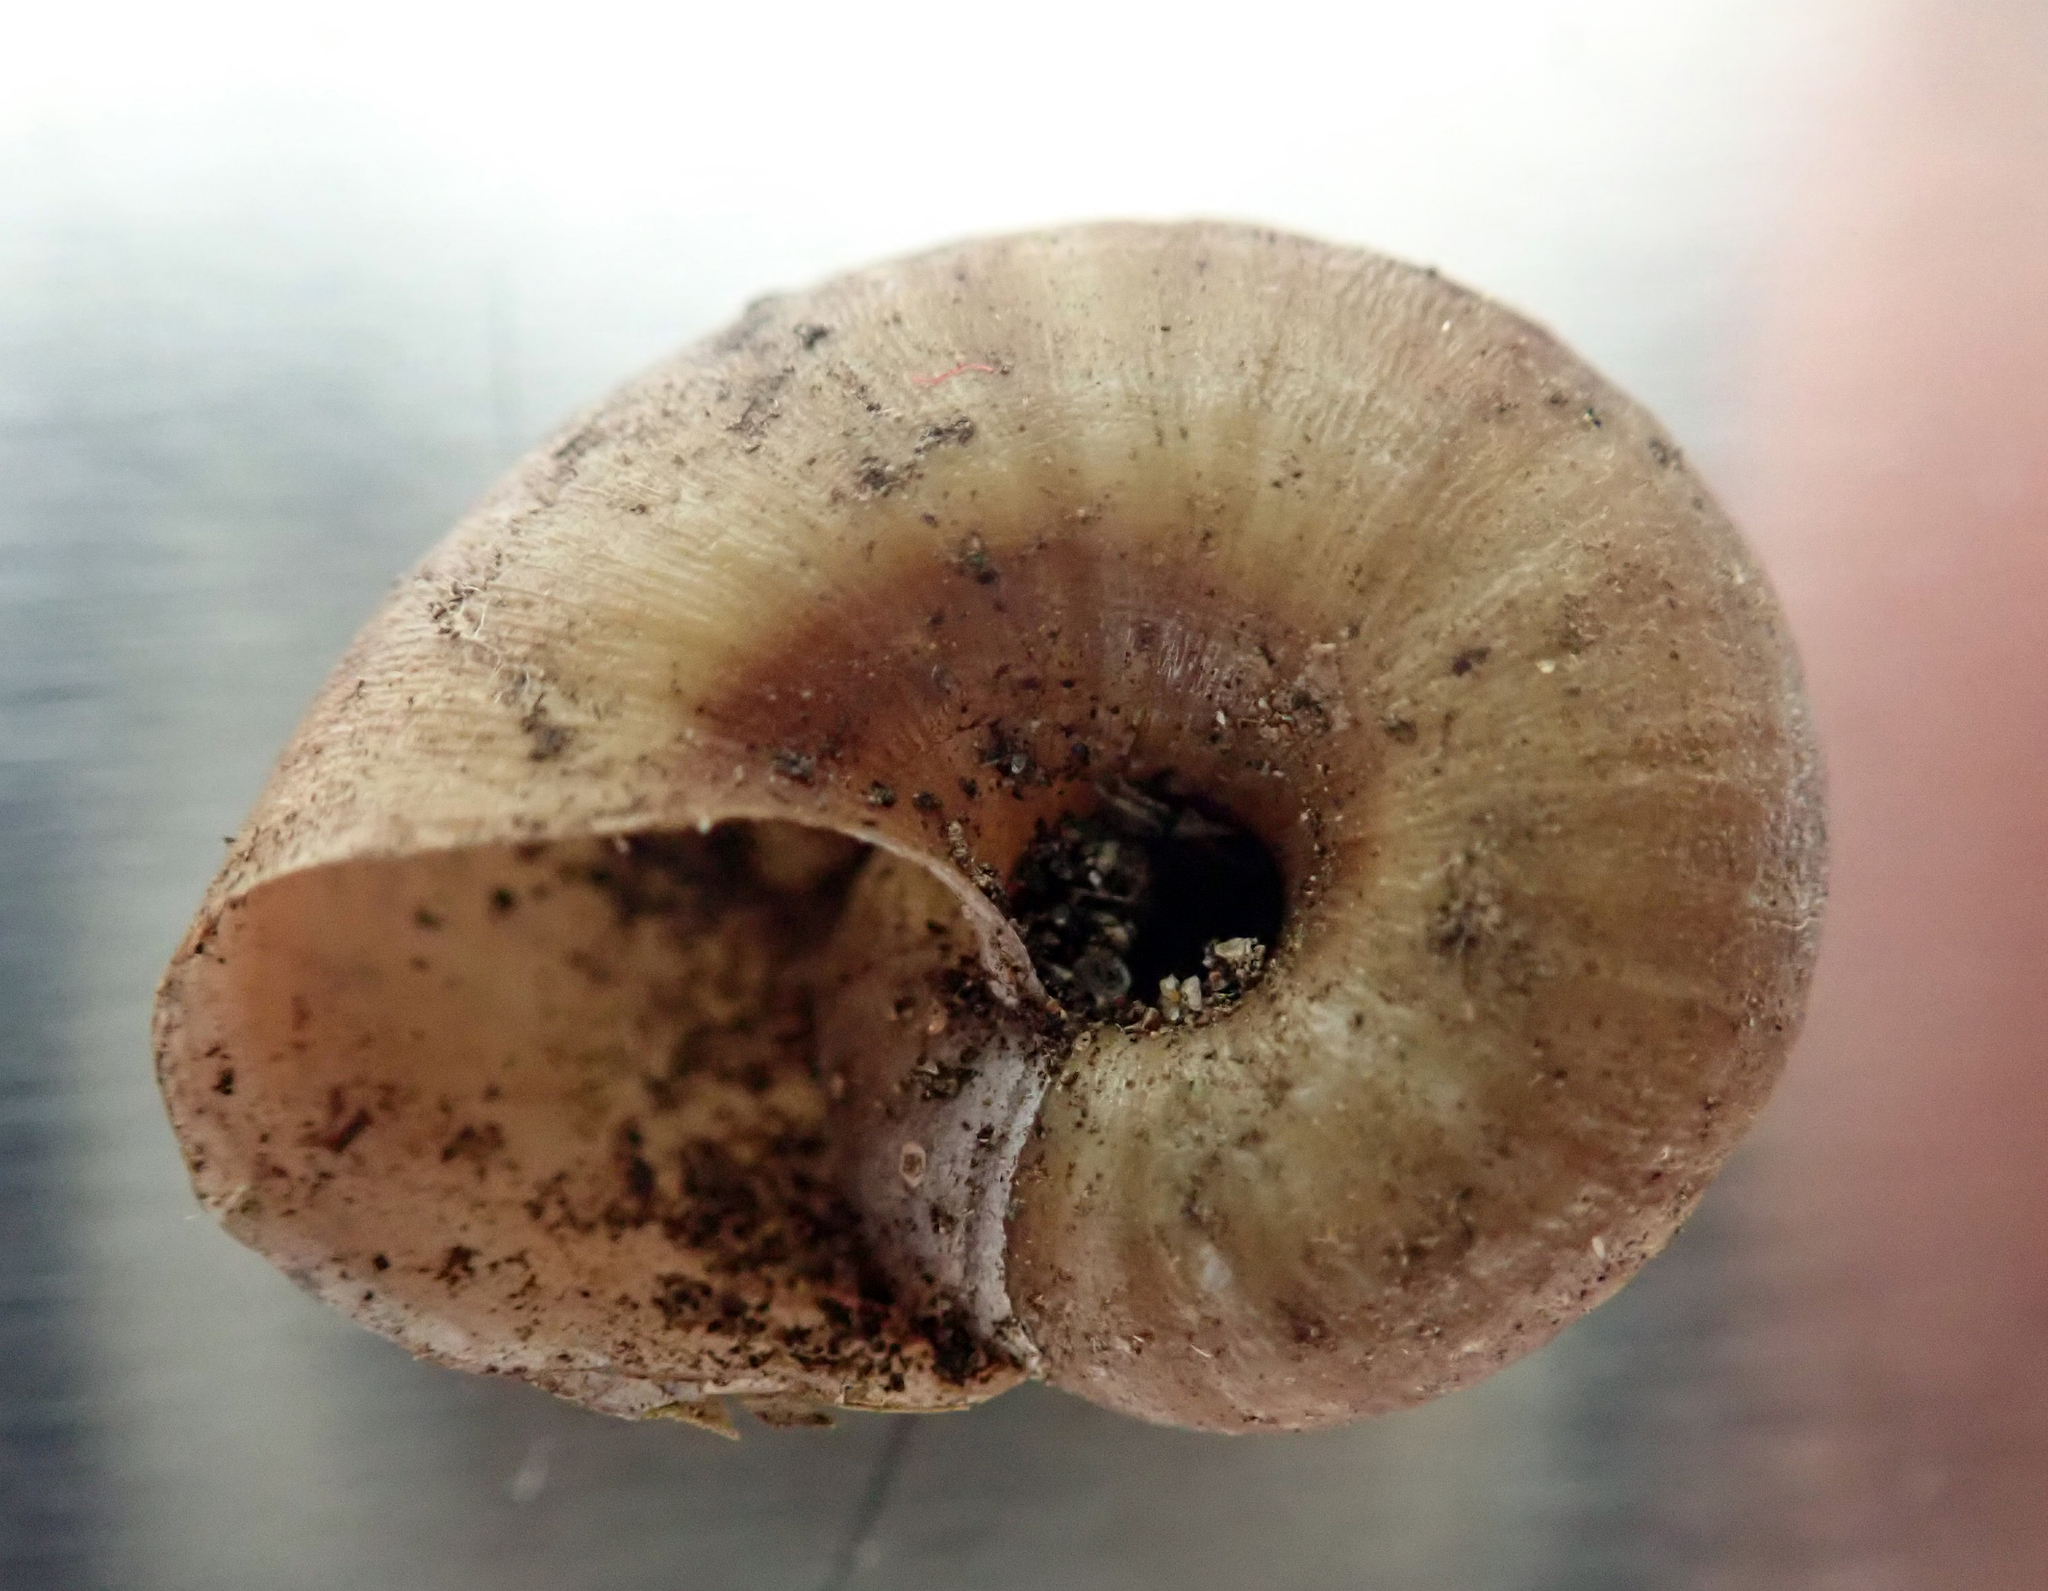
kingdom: Animalia
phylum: Mollusca
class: Gastropoda
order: Stylommatophora
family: Rhytididae
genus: Rhytida
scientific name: Rhytida greenwoodi
